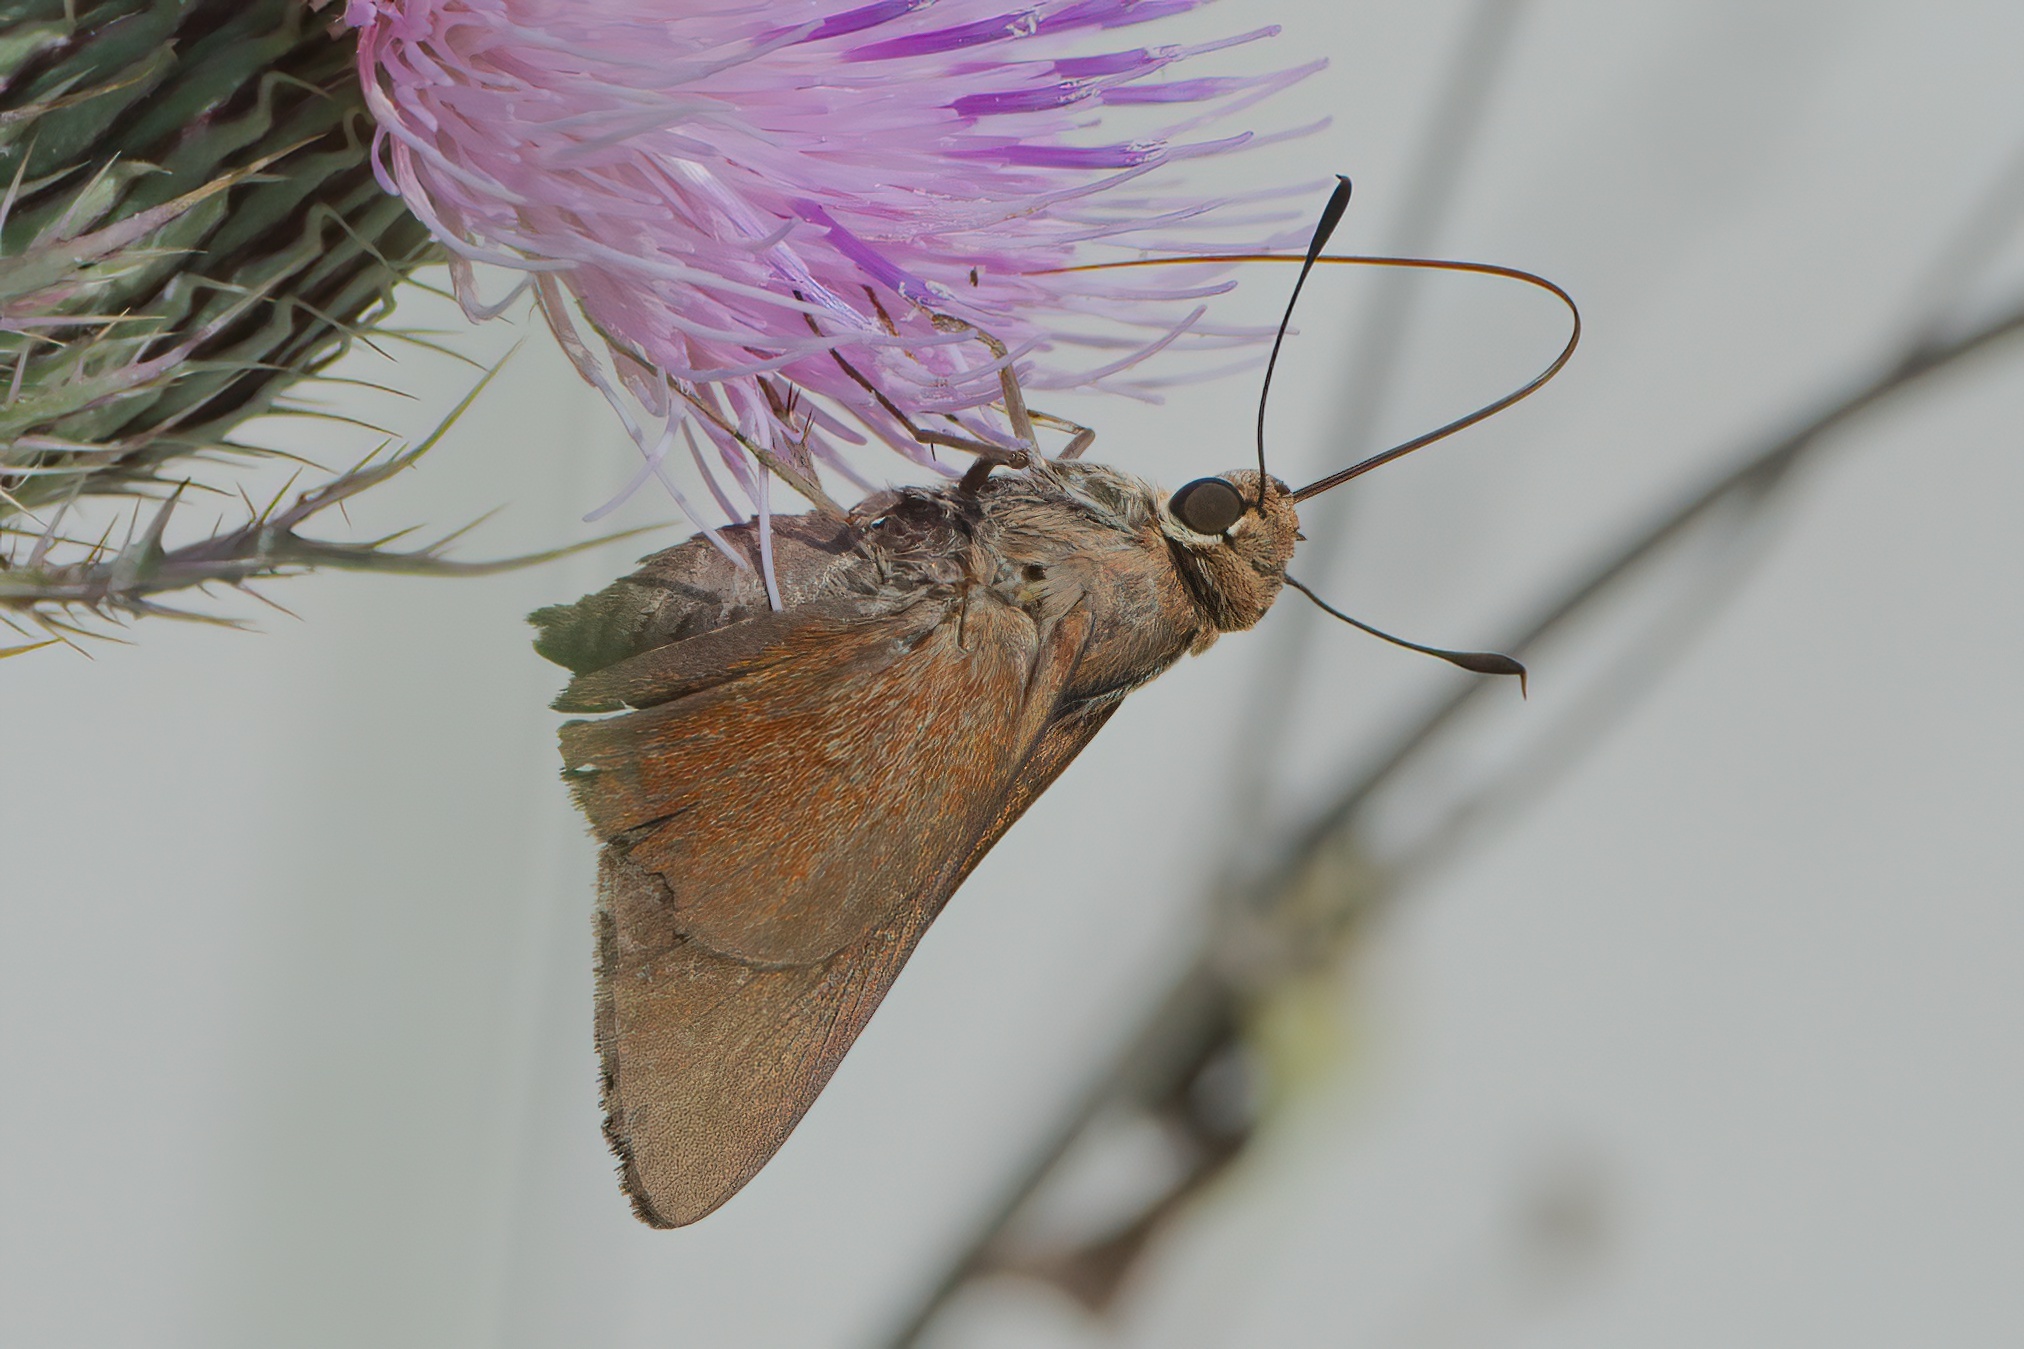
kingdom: Animalia
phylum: Arthropoda
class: Insecta
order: Lepidoptera
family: Hesperiidae
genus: Asbolis
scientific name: Asbolis capucinus
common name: Monk skipper
